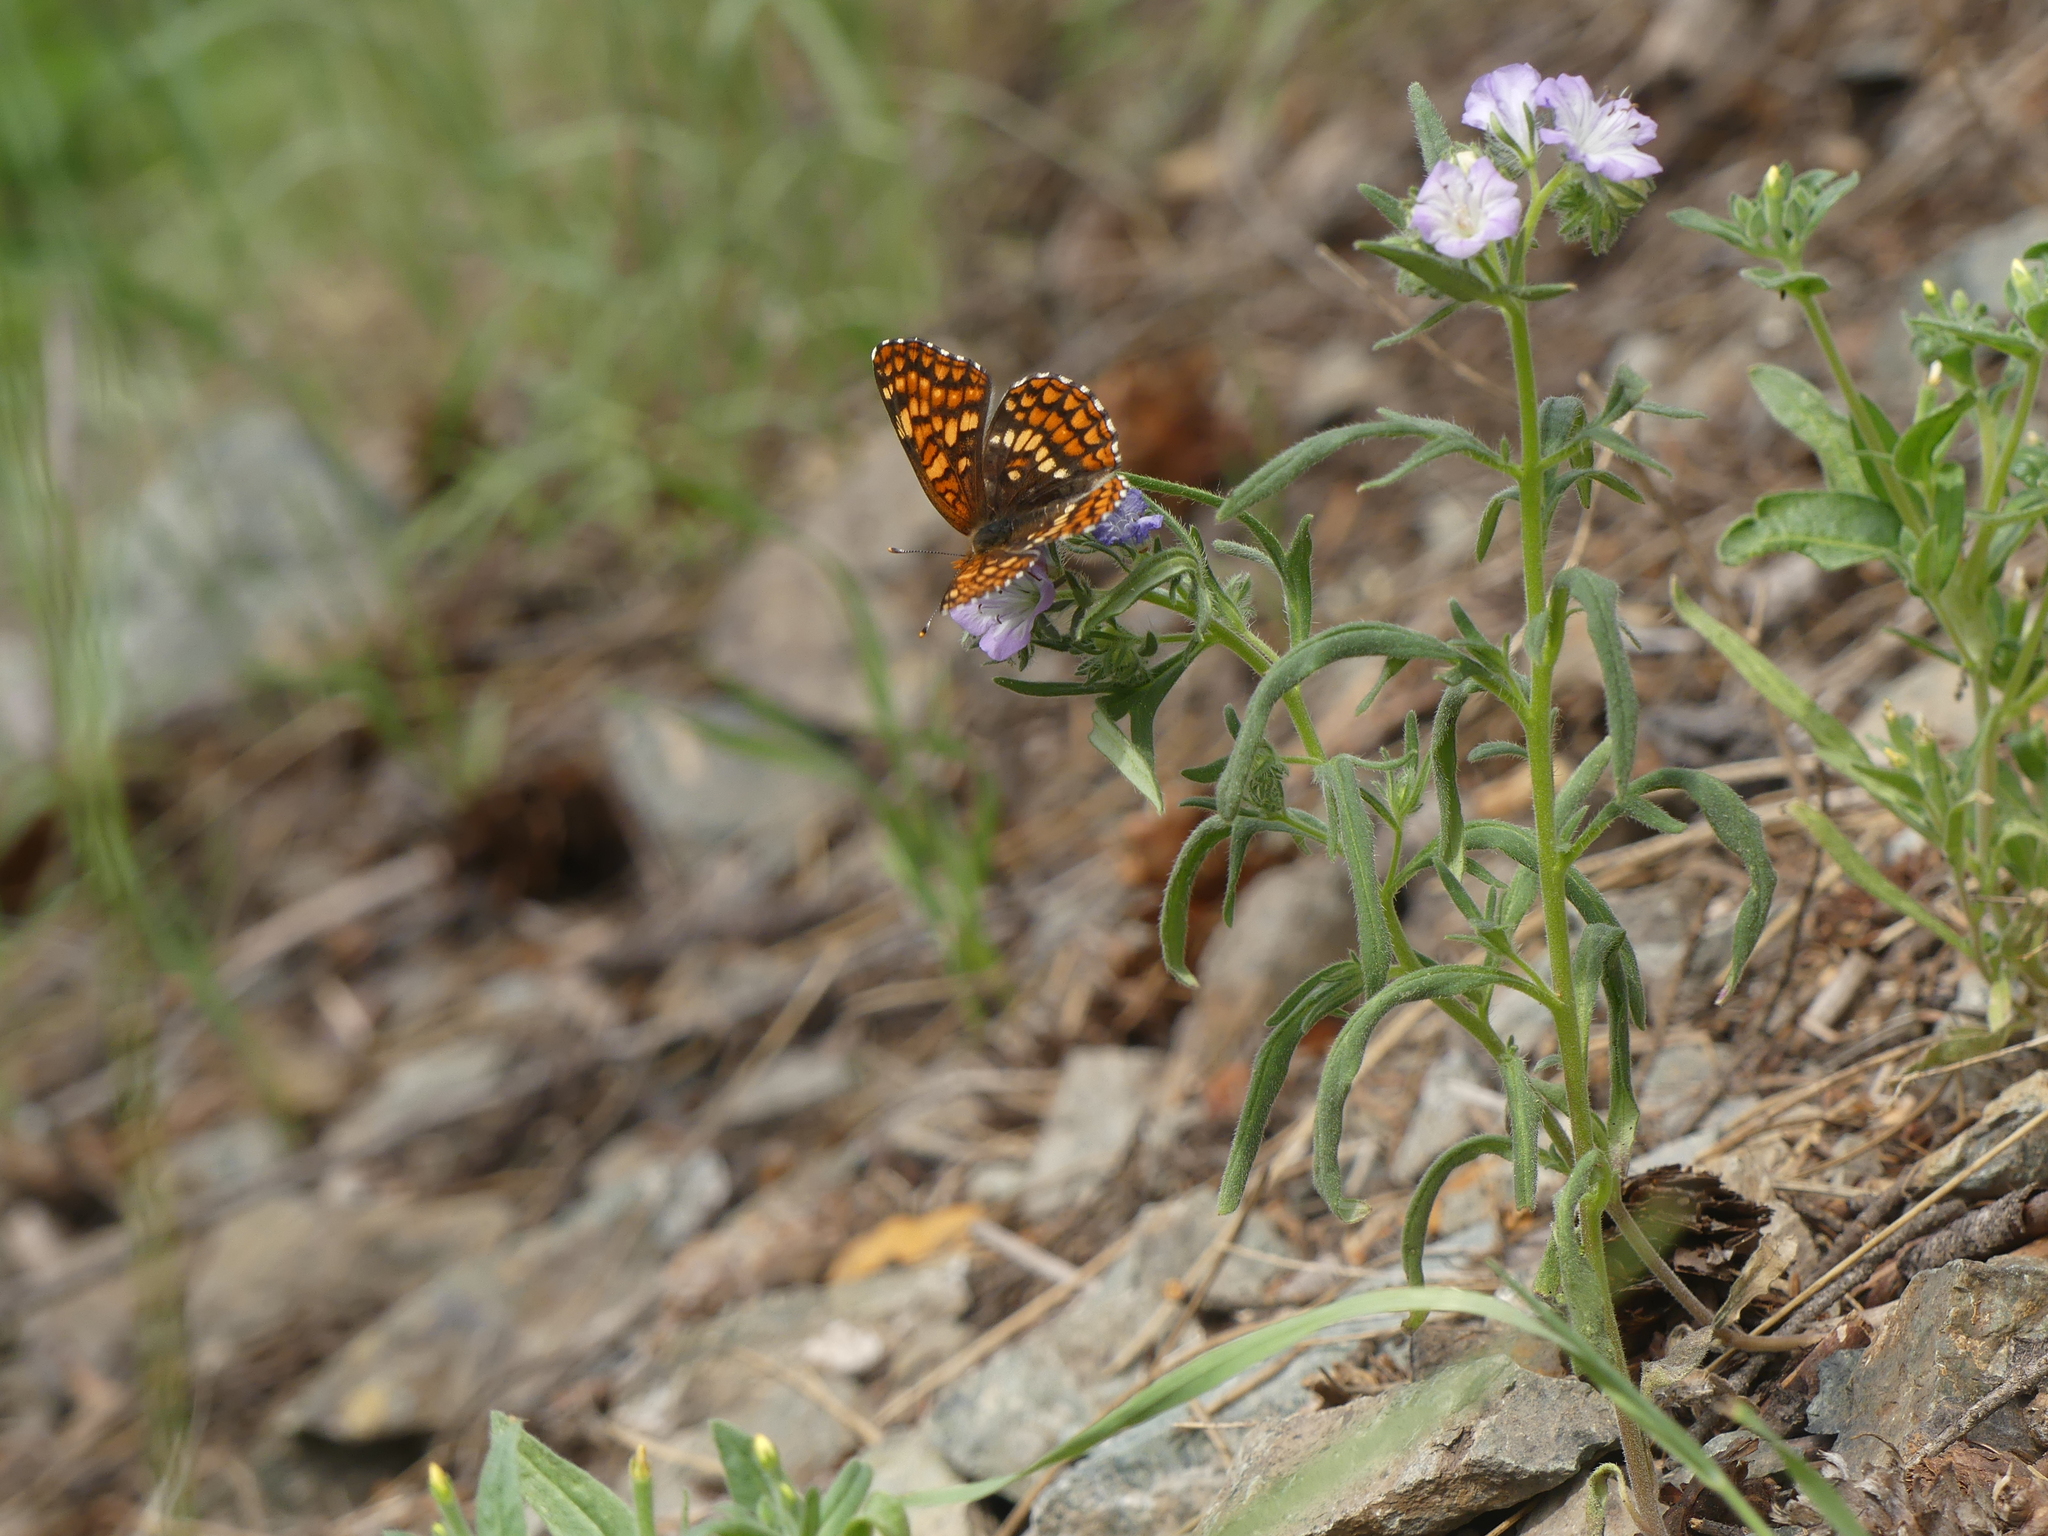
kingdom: Animalia
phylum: Arthropoda
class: Insecta
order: Lepidoptera
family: Nymphalidae
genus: Chlosyne
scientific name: Chlosyne palla
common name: Northern checkerspot
